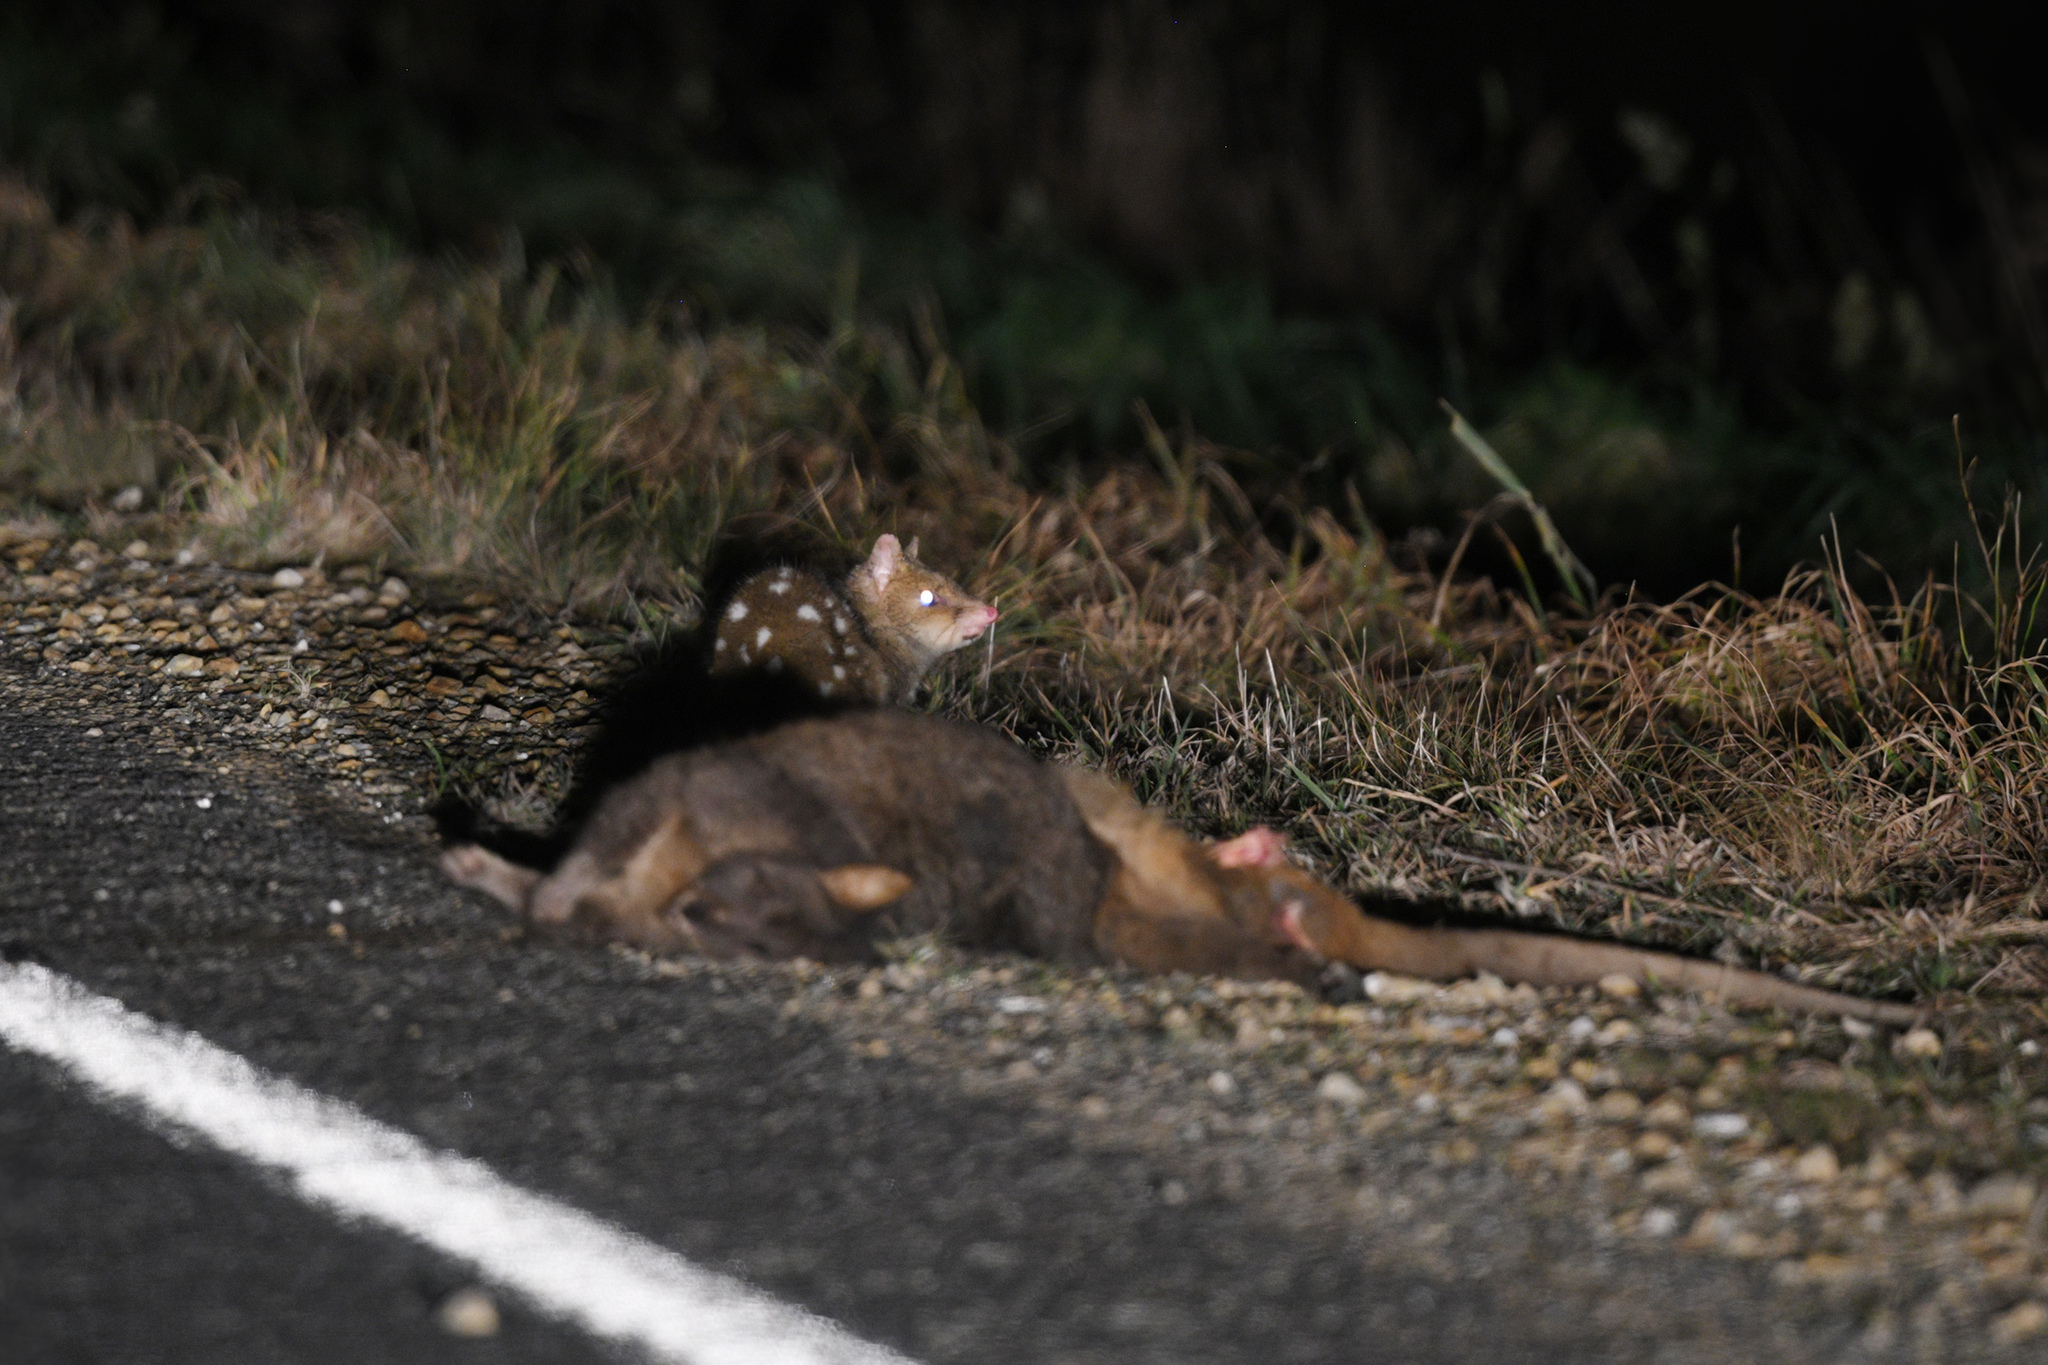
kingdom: Animalia
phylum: Chordata
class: Mammalia
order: Dasyuromorphia
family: Dasyuridae
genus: Dasyurus
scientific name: Dasyurus viverrinus
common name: Eastern quoll
